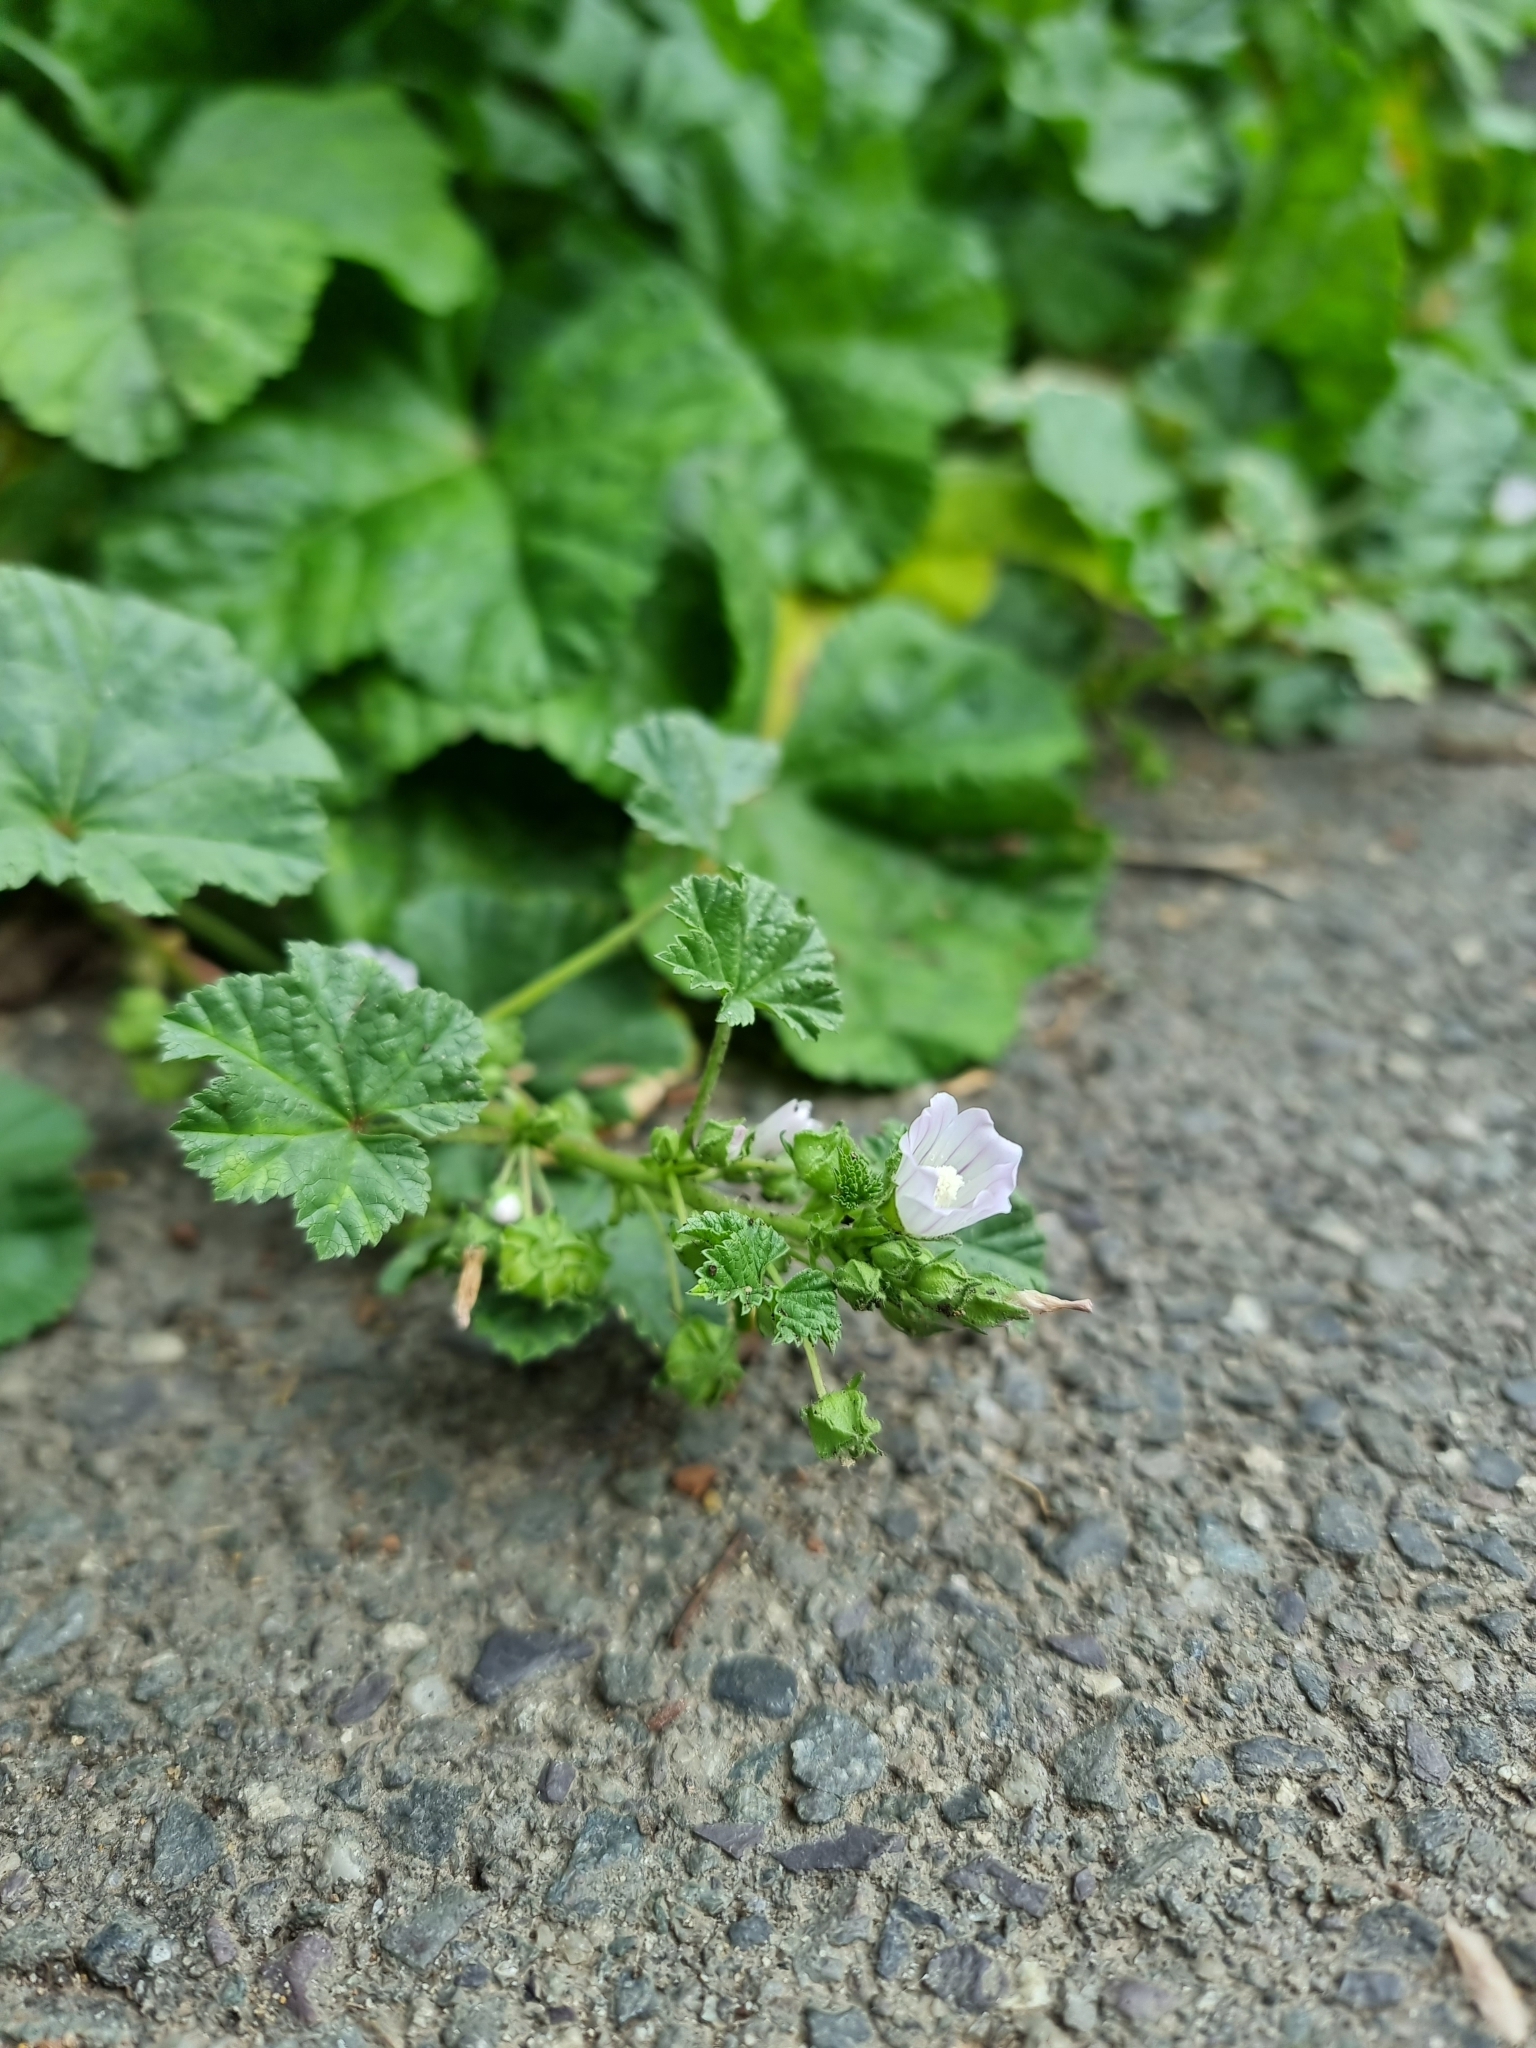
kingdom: Plantae
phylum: Tracheophyta
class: Magnoliopsida
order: Malvales
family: Malvaceae
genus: Malva
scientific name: Malva neglecta
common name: Common mallow
